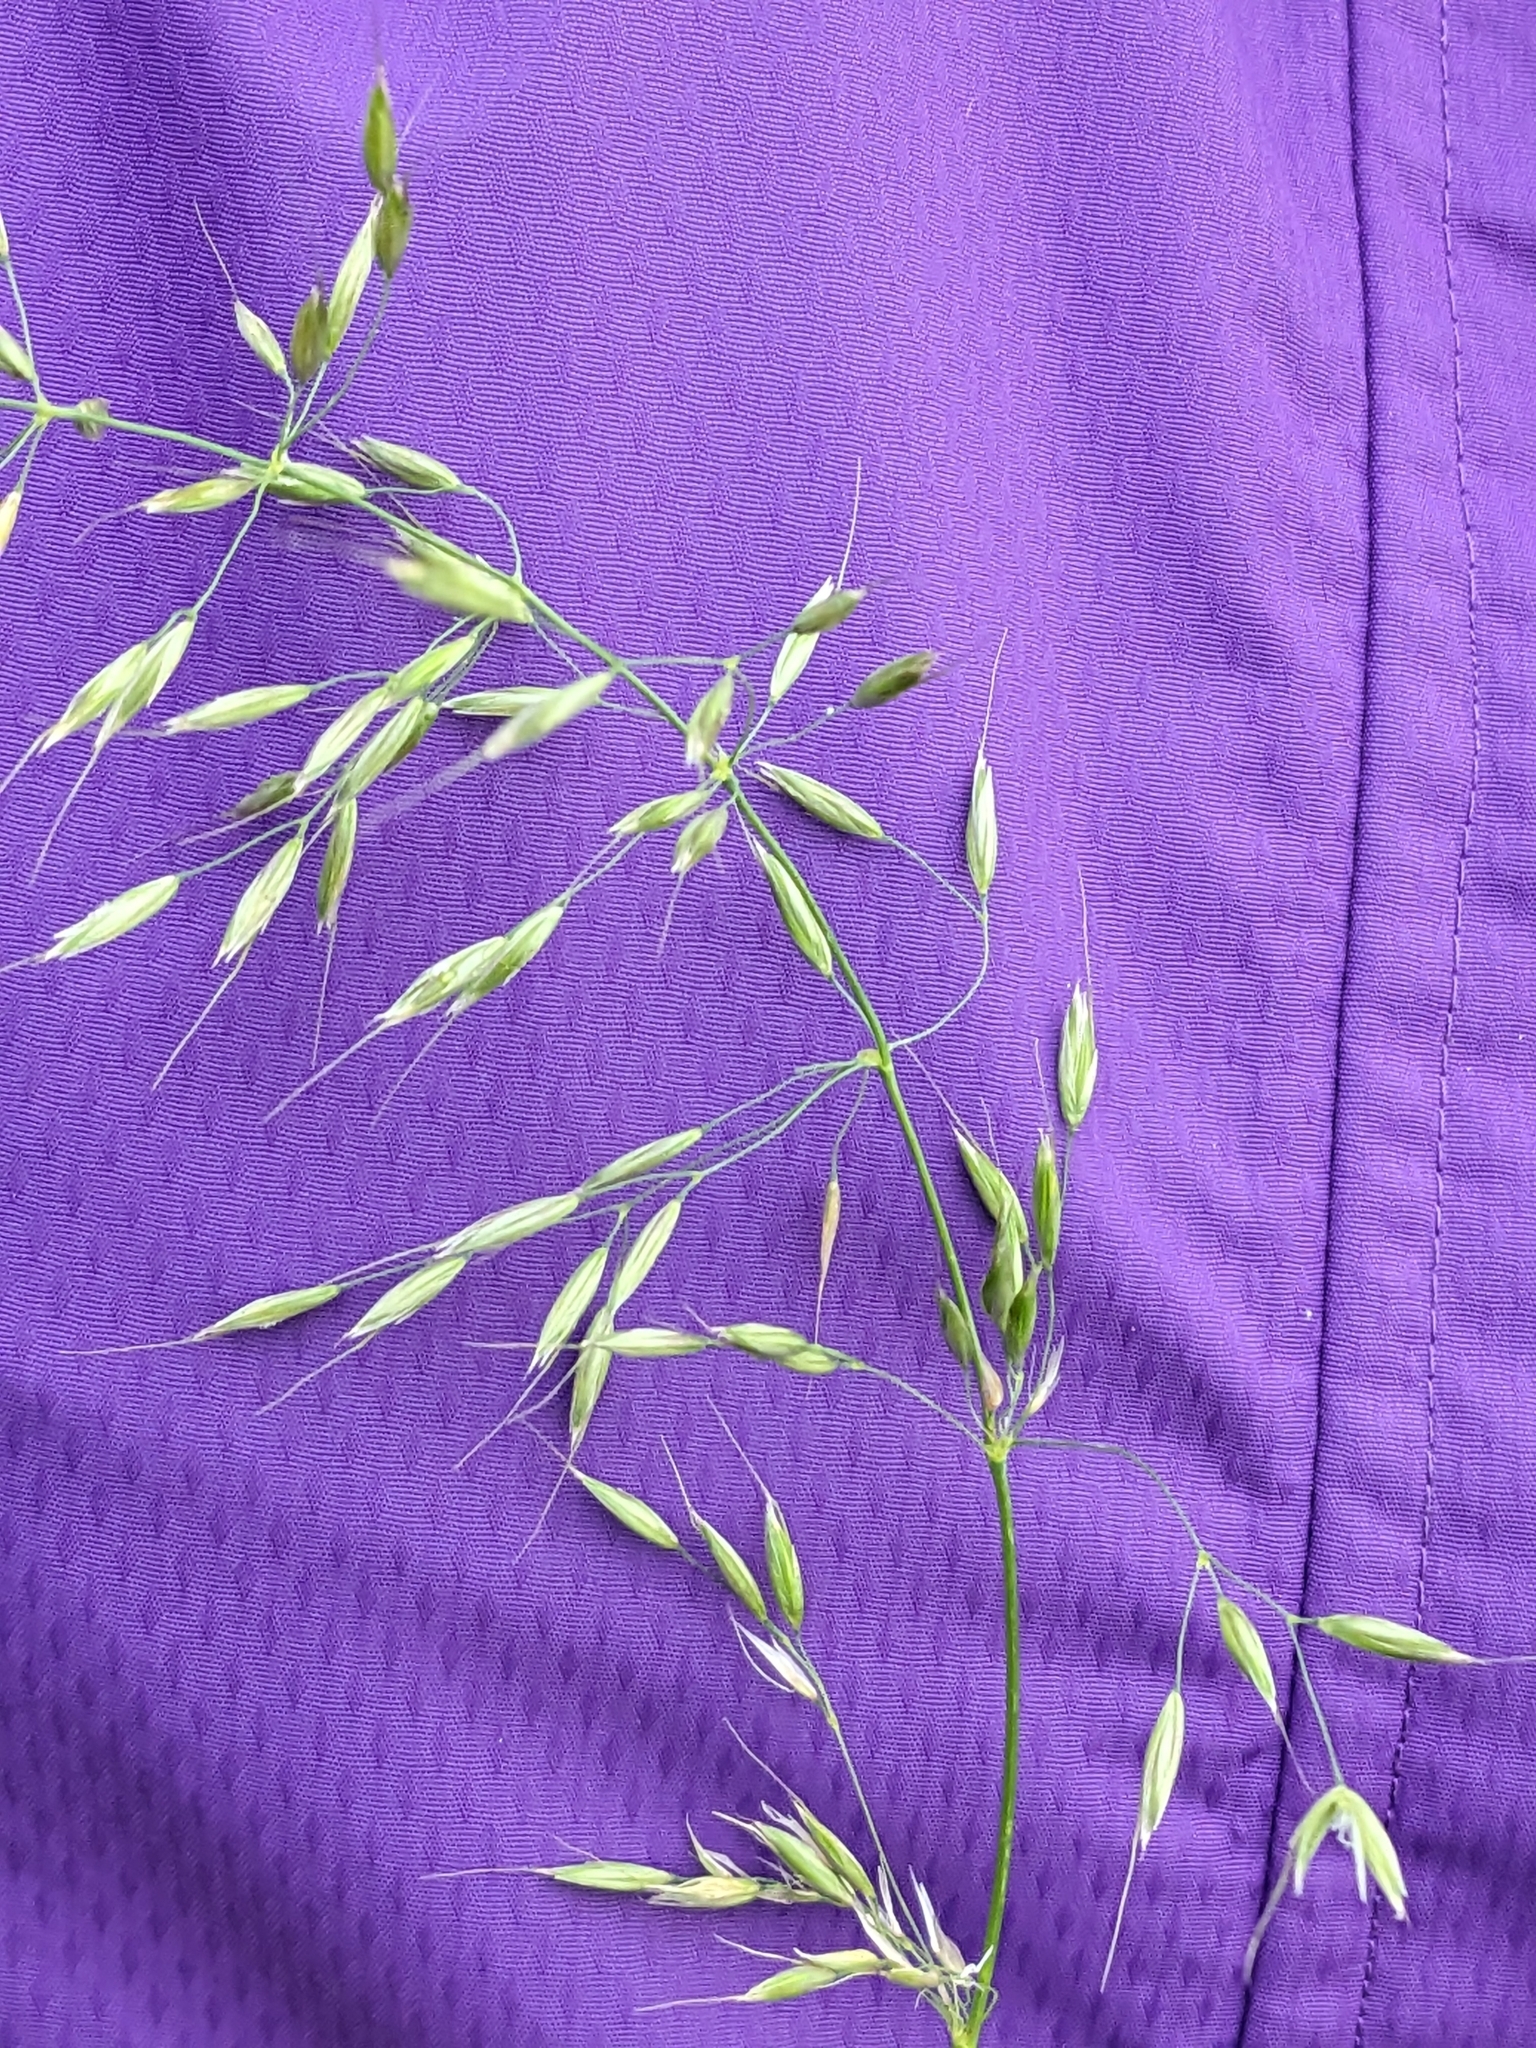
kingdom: Plantae
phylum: Tracheophyta
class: Liliopsida
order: Poales
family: Poaceae
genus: Arrhenatherum
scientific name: Arrhenatherum elatius
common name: Tall oatgrass
